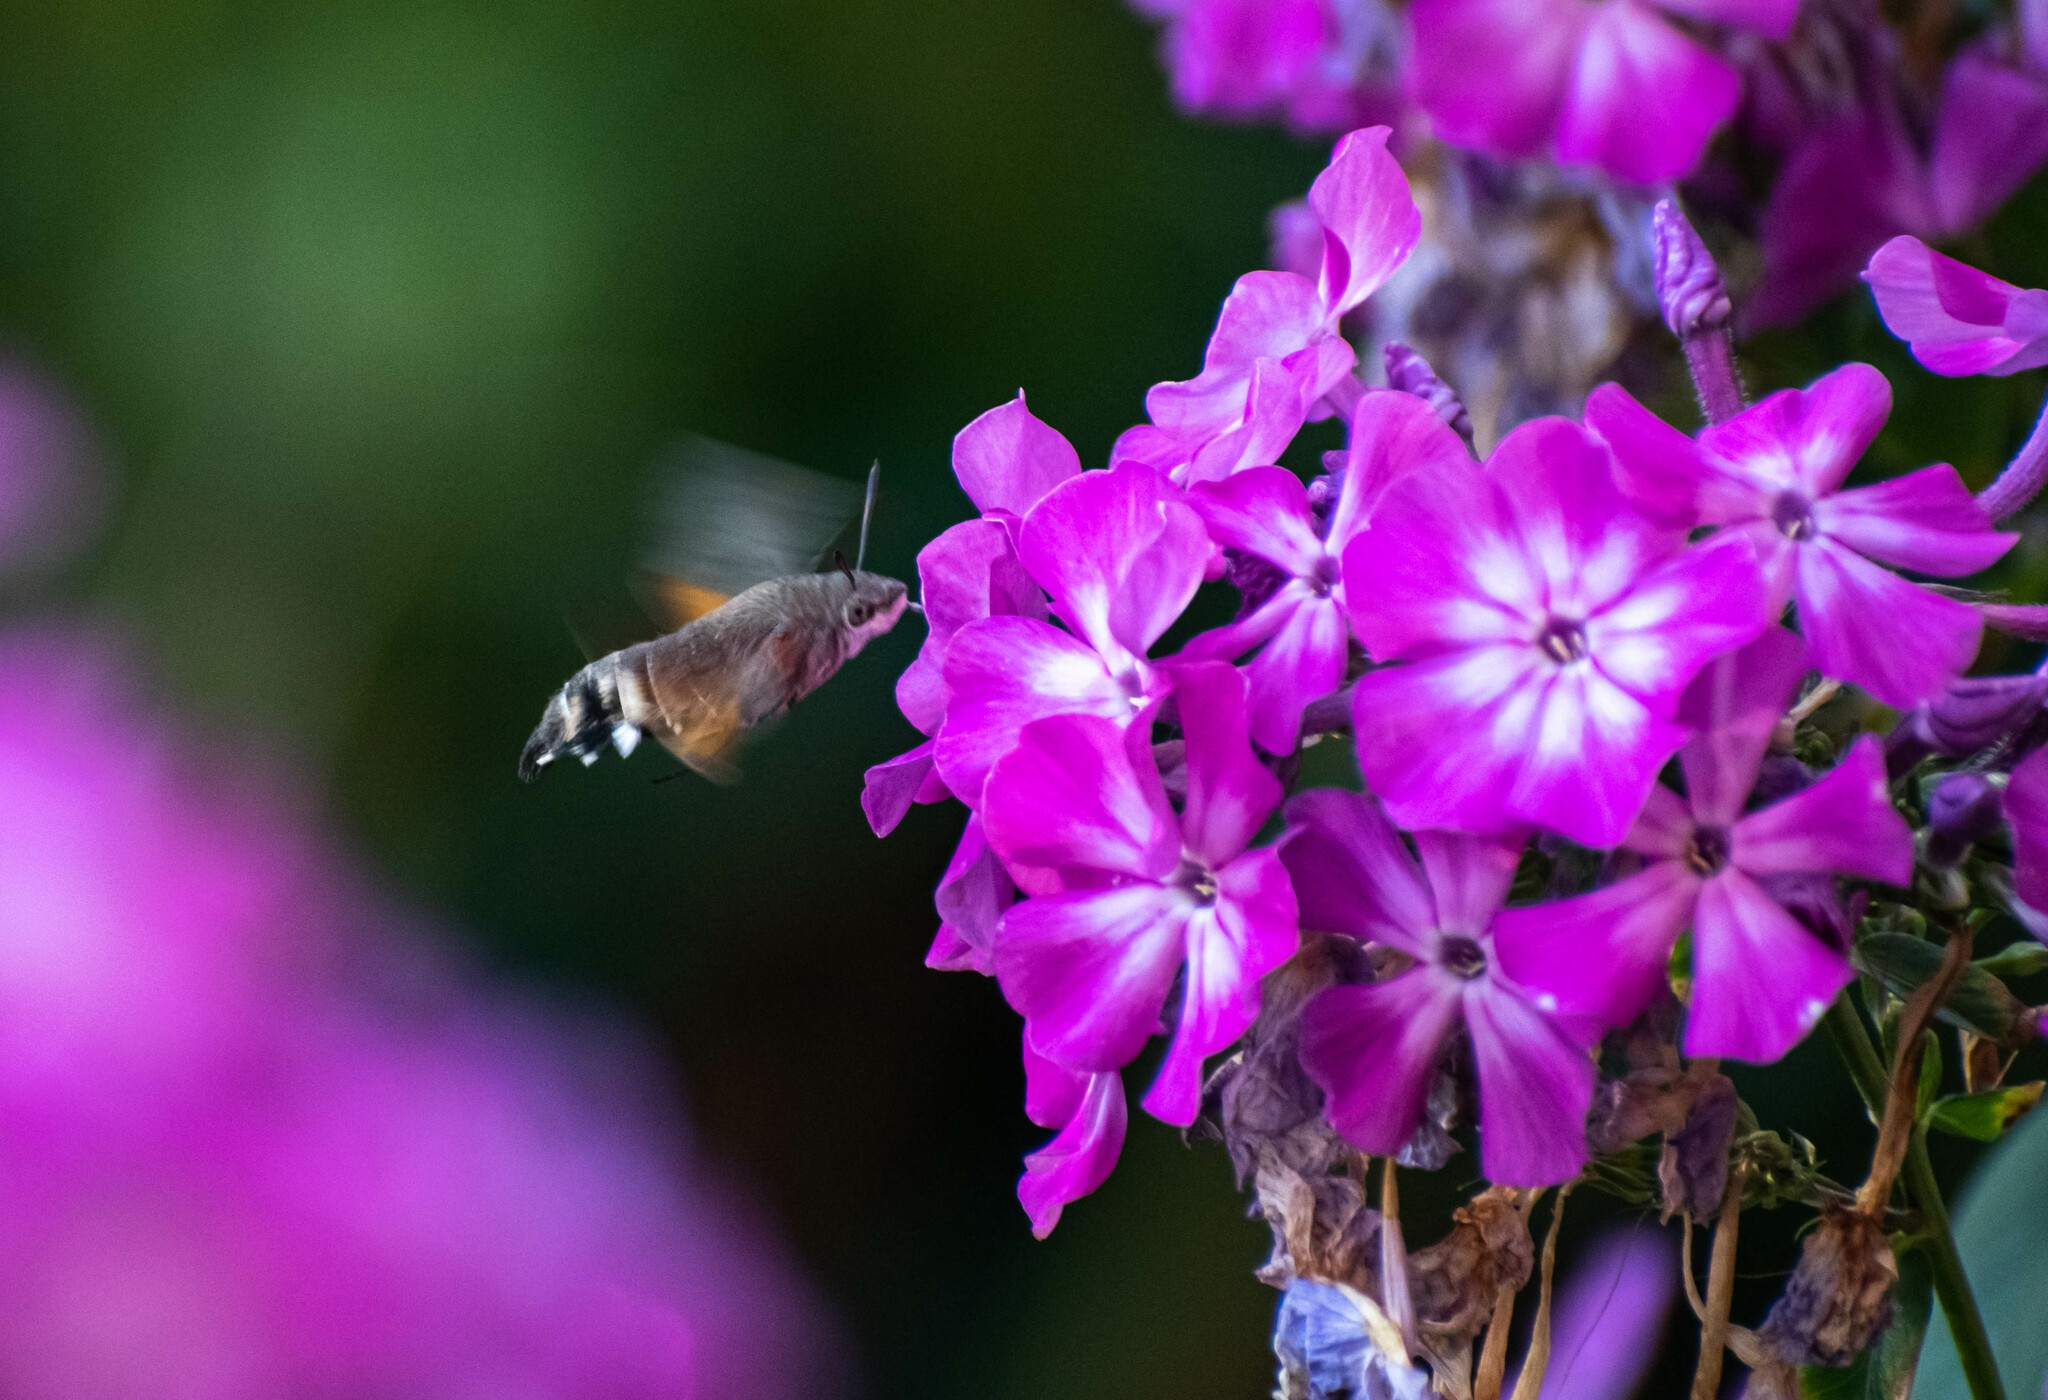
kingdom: Animalia
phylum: Arthropoda
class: Insecta
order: Lepidoptera
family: Sphingidae
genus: Macroglossum
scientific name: Macroglossum stellatarum
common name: Humming-bird hawk-moth
